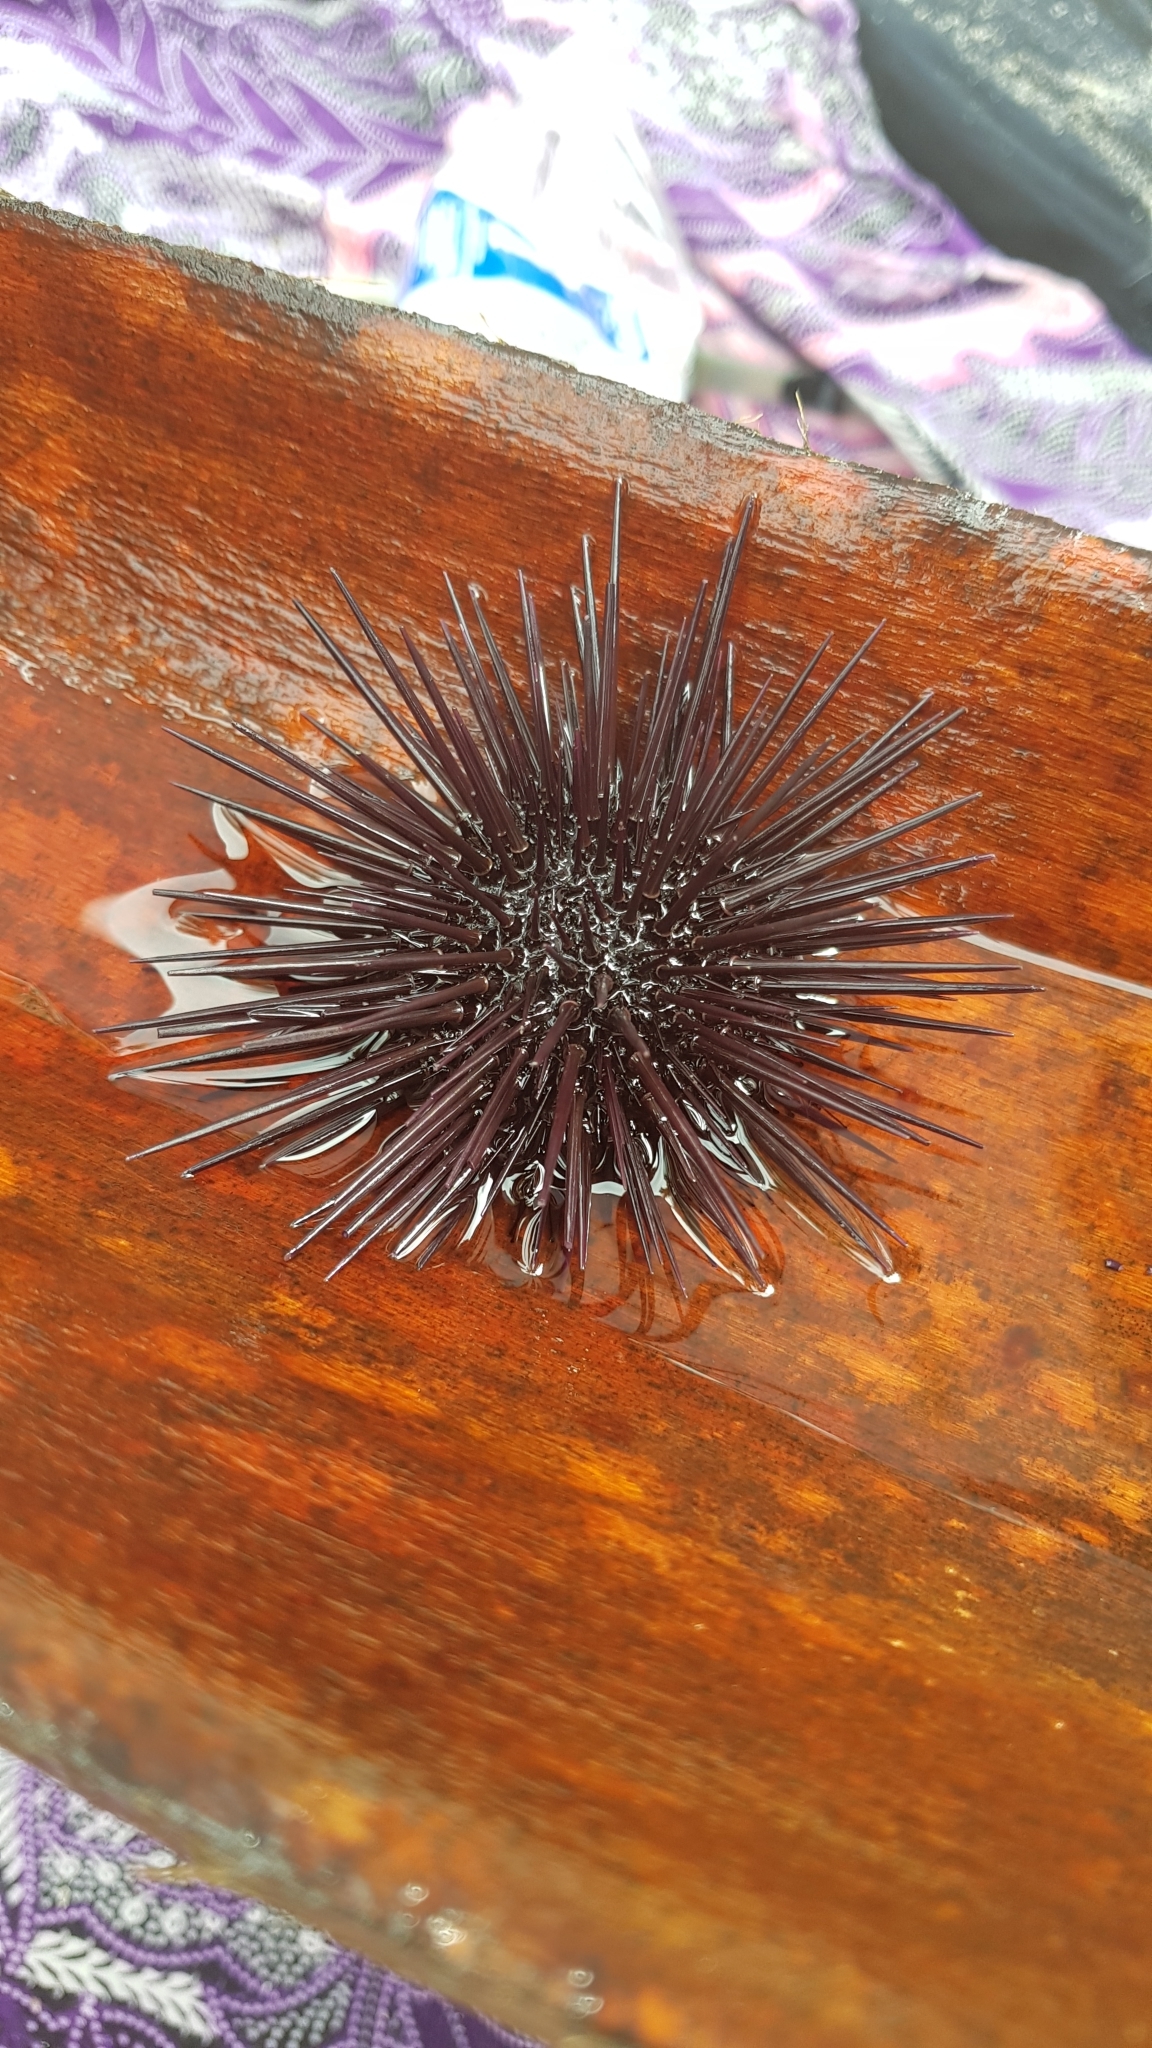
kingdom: Animalia
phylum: Echinodermata
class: Echinoidea
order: Camarodonta
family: Echinometridae
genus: Echinometra
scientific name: Echinometra vanbrunti
